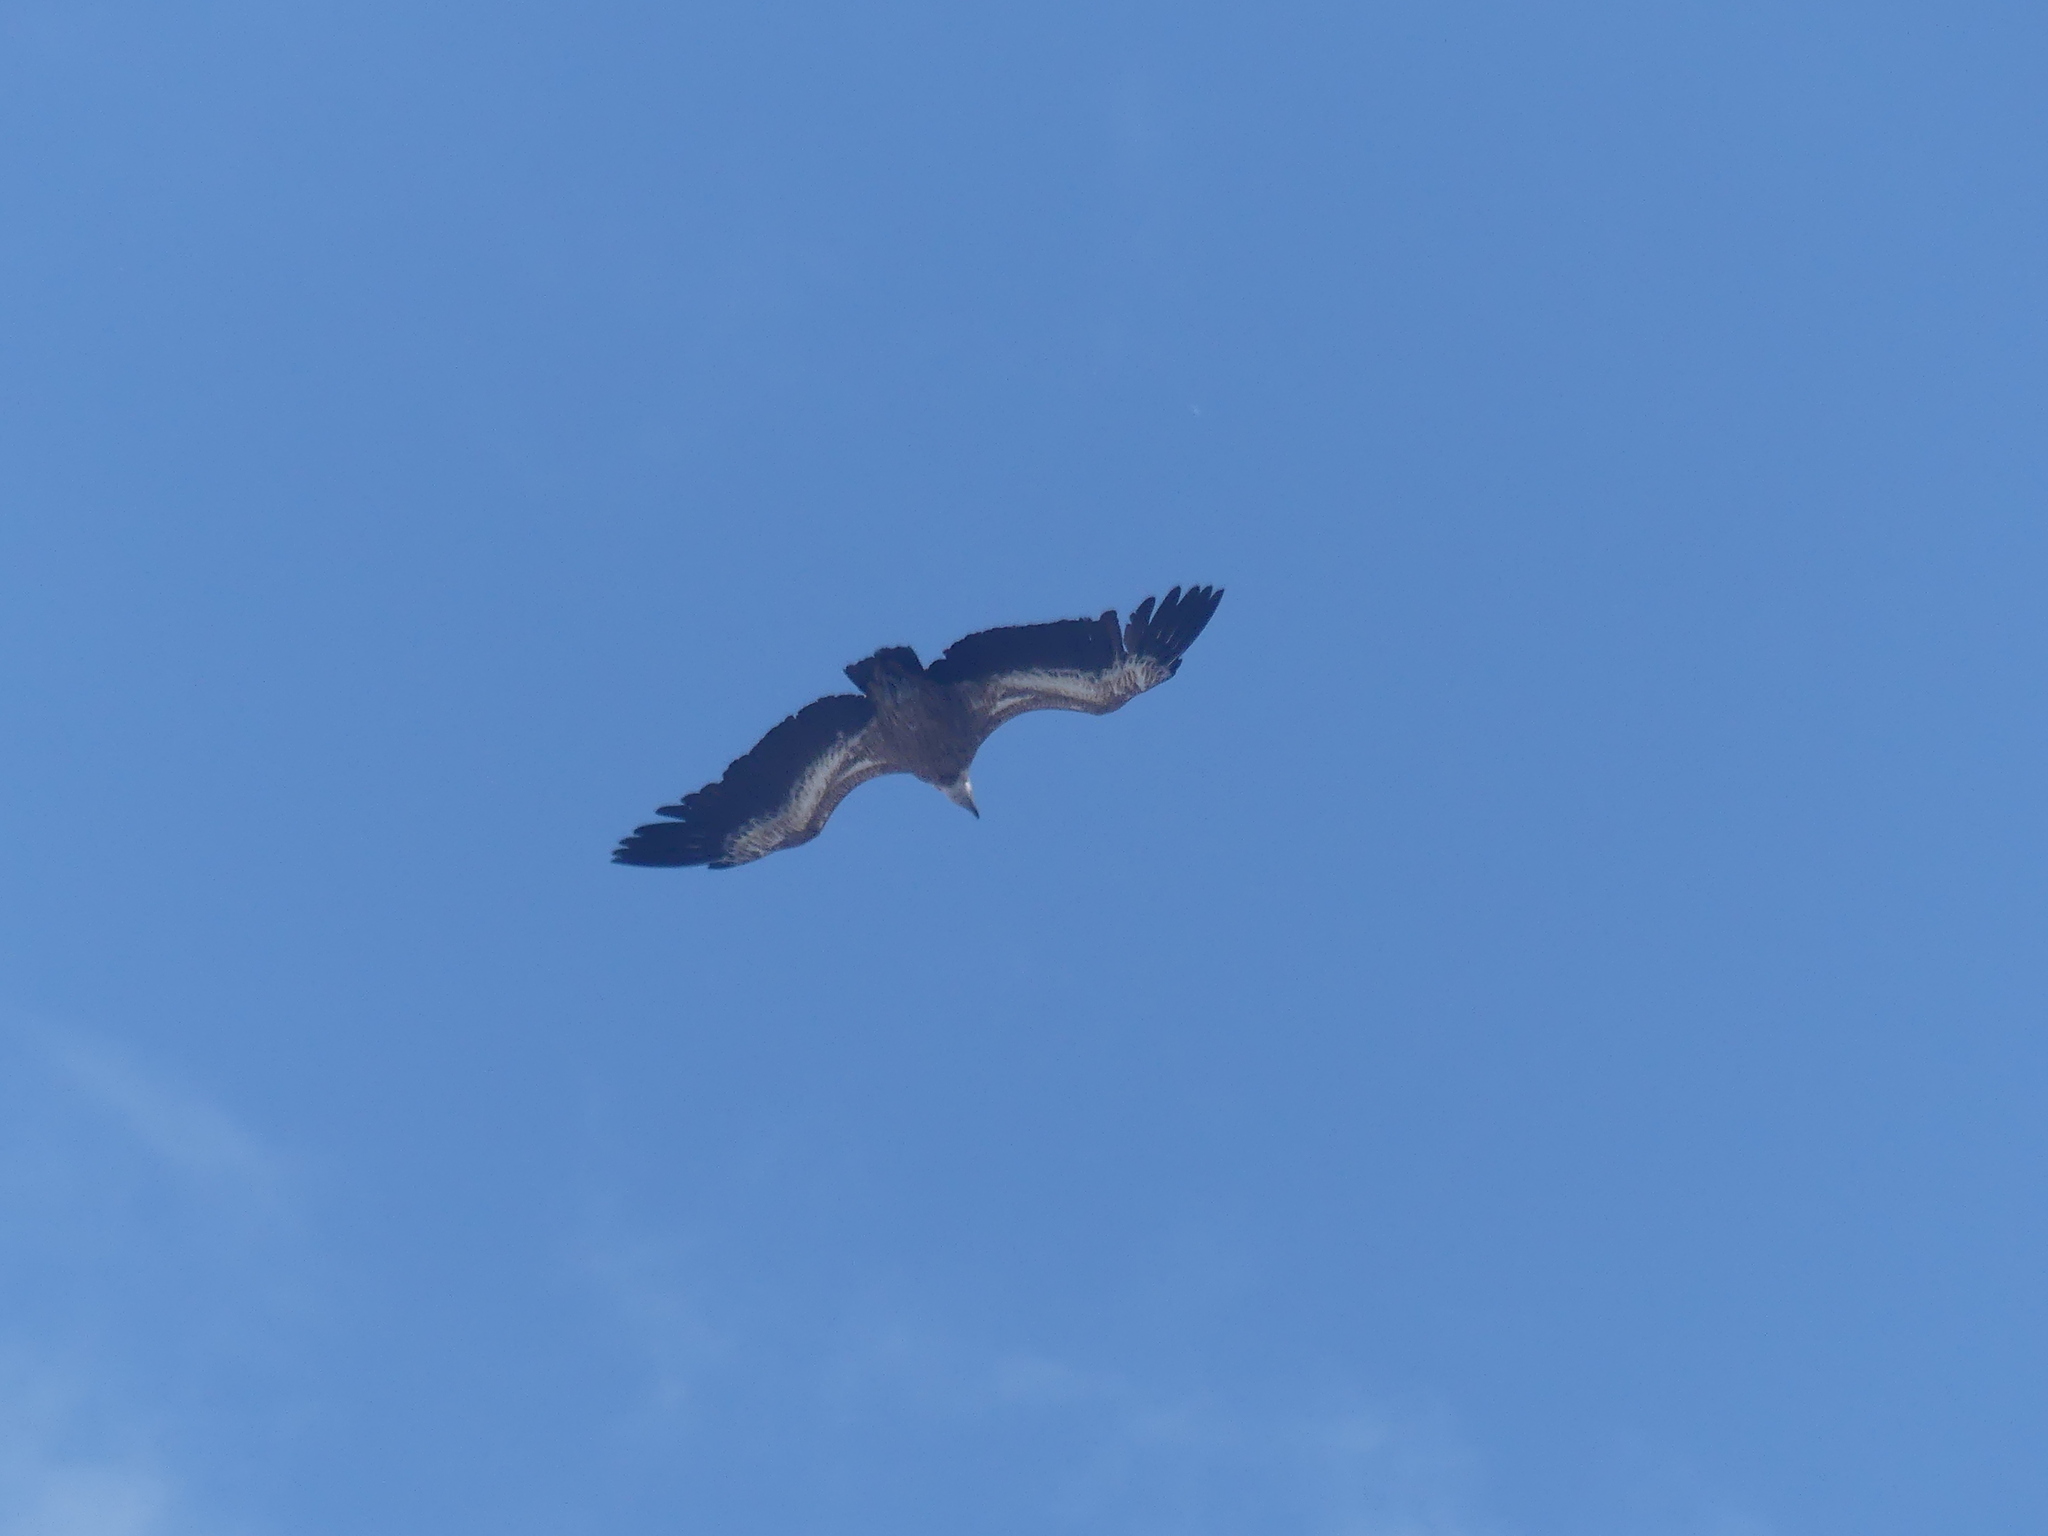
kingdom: Animalia
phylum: Chordata
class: Aves
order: Accipitriformes
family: Accipitridae
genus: Gyps
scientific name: Gyps fulvus
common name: Griffon vulture
